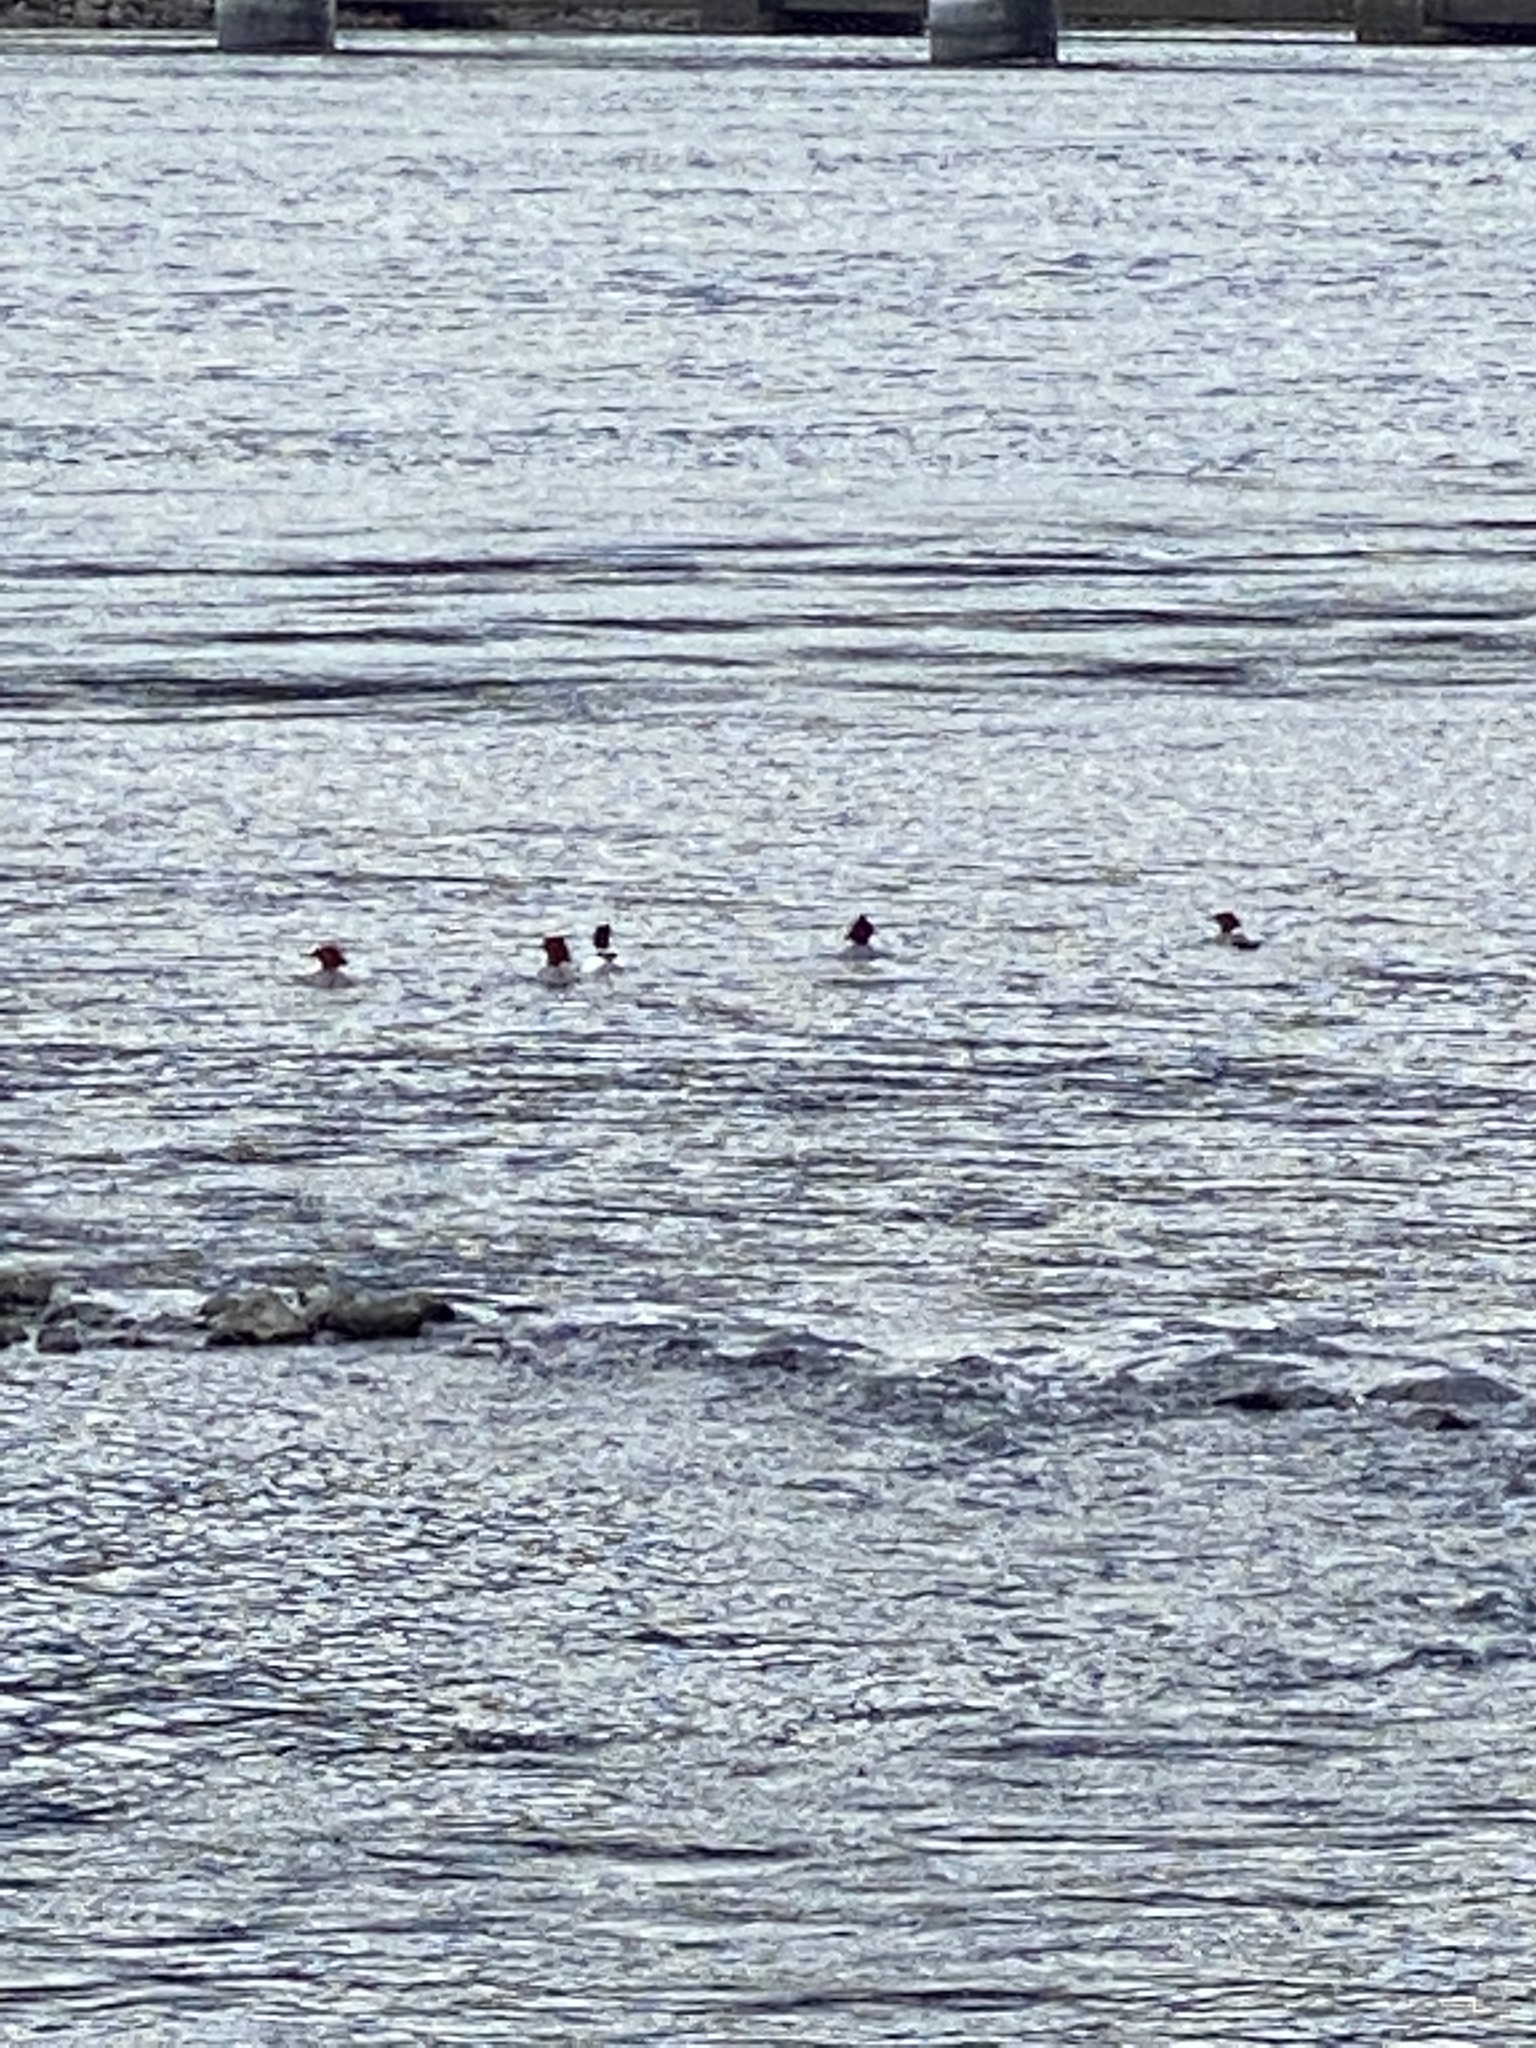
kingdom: Animalia
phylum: Chordata
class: Aves
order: Anseriformes
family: Anatidae
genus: Mergus
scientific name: Mergus merganser
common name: Common merganser
